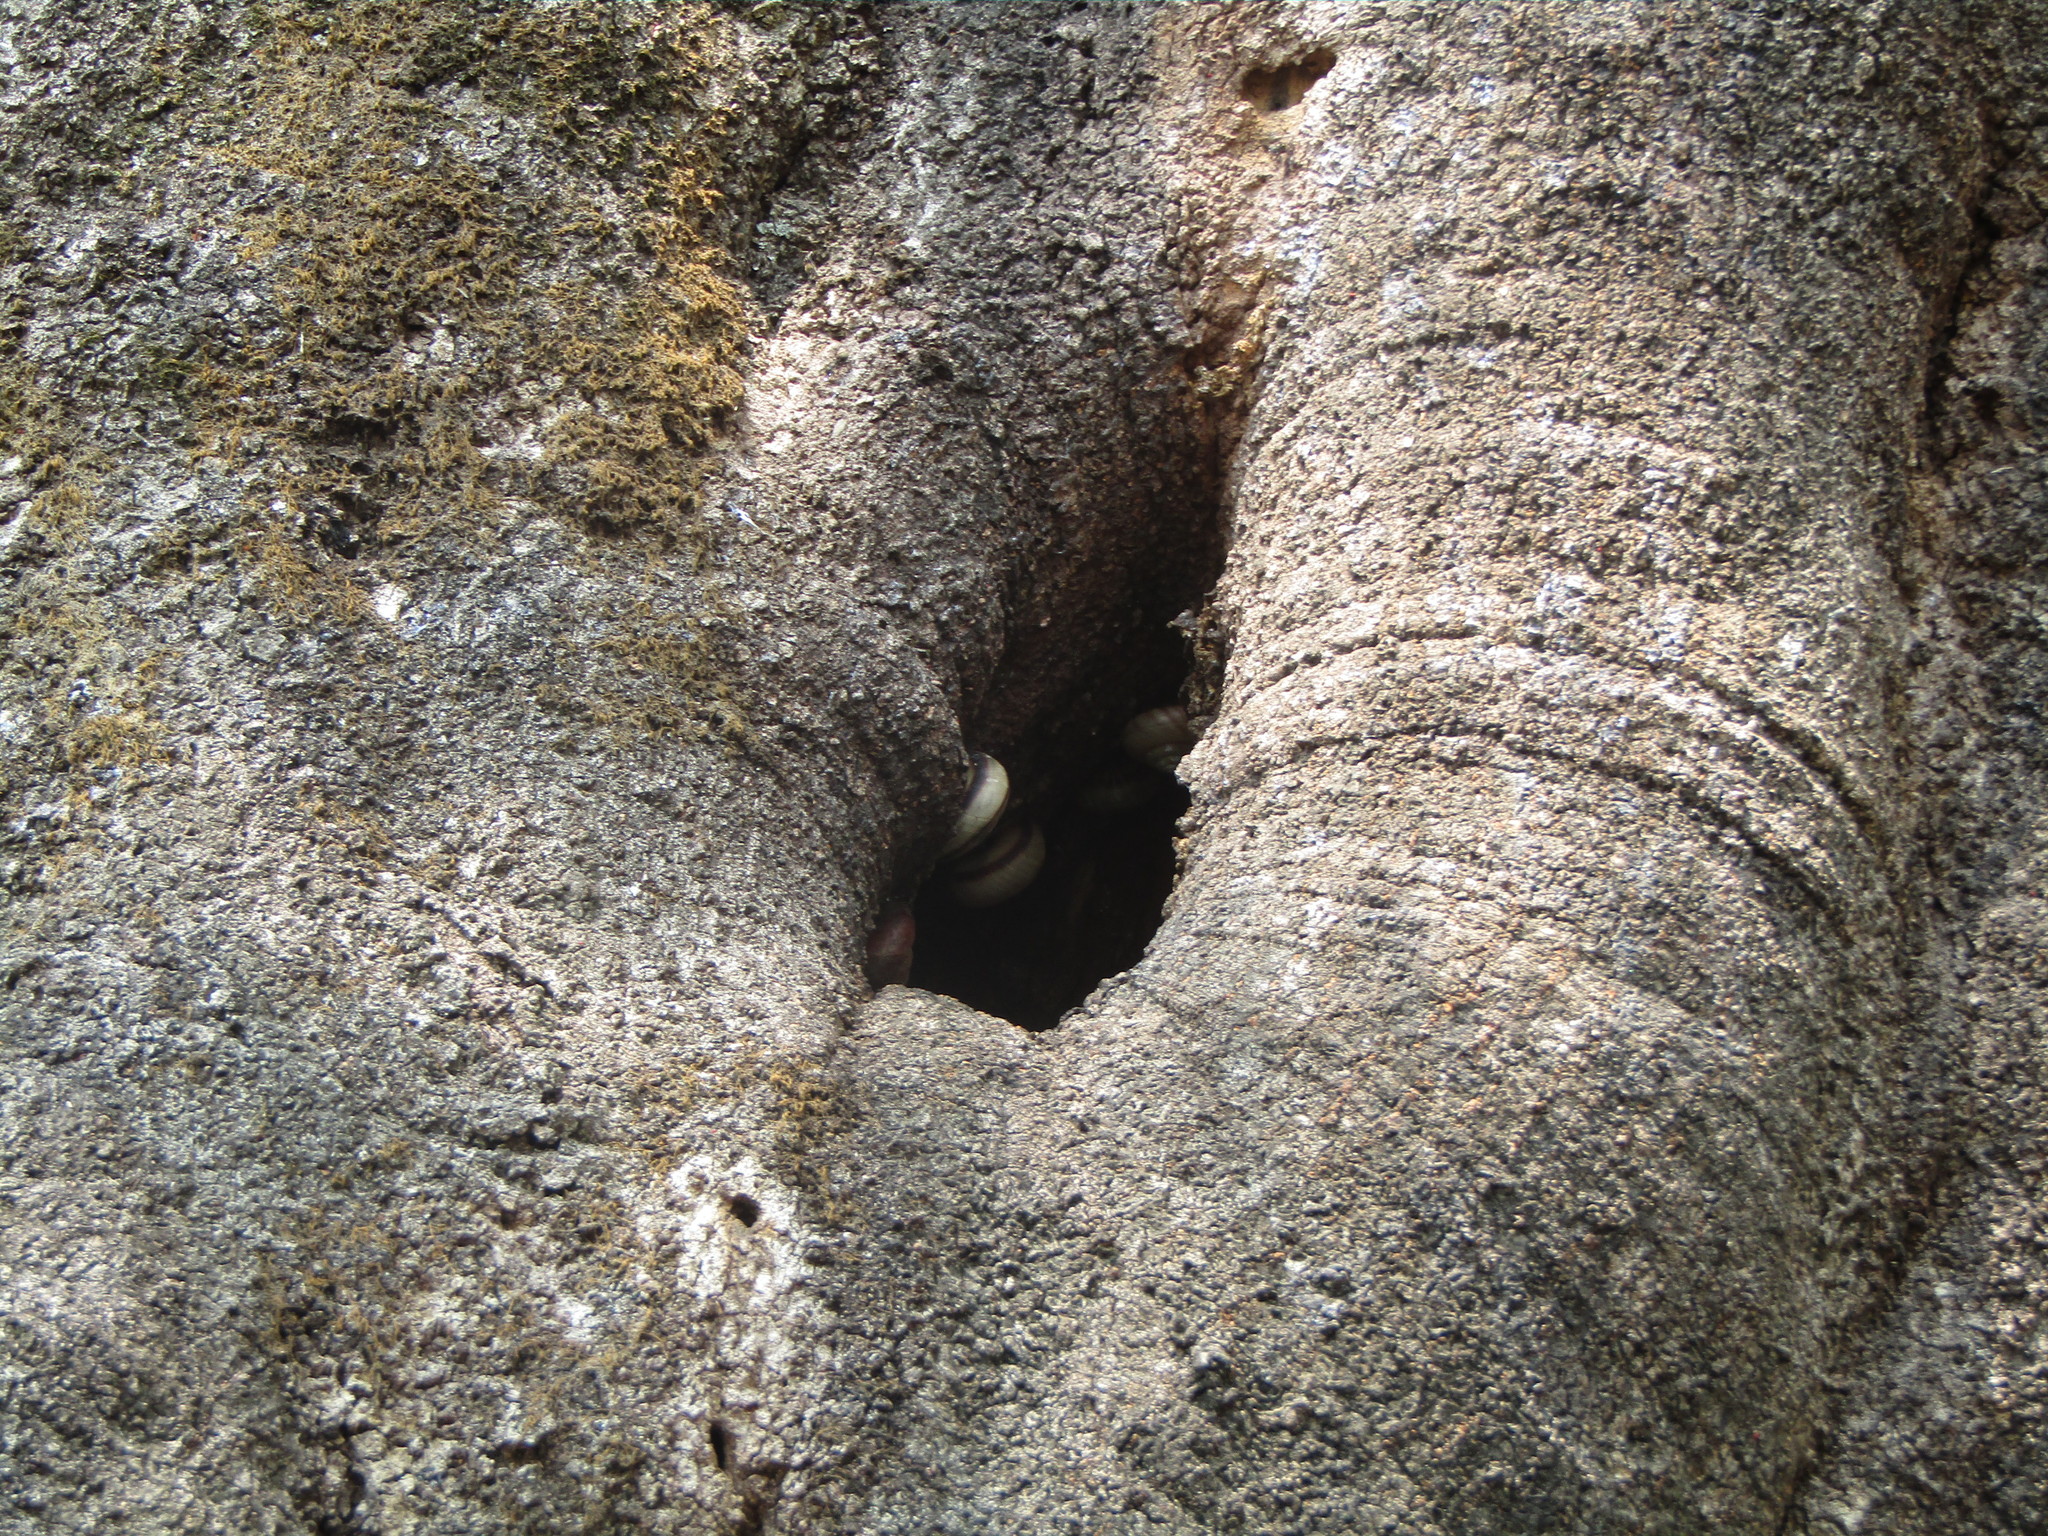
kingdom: Animalia
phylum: Mollusca
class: Gastropoda
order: Stylommatophora
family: Camaenidae
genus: Euhadra
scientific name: Euhadra amaliae
